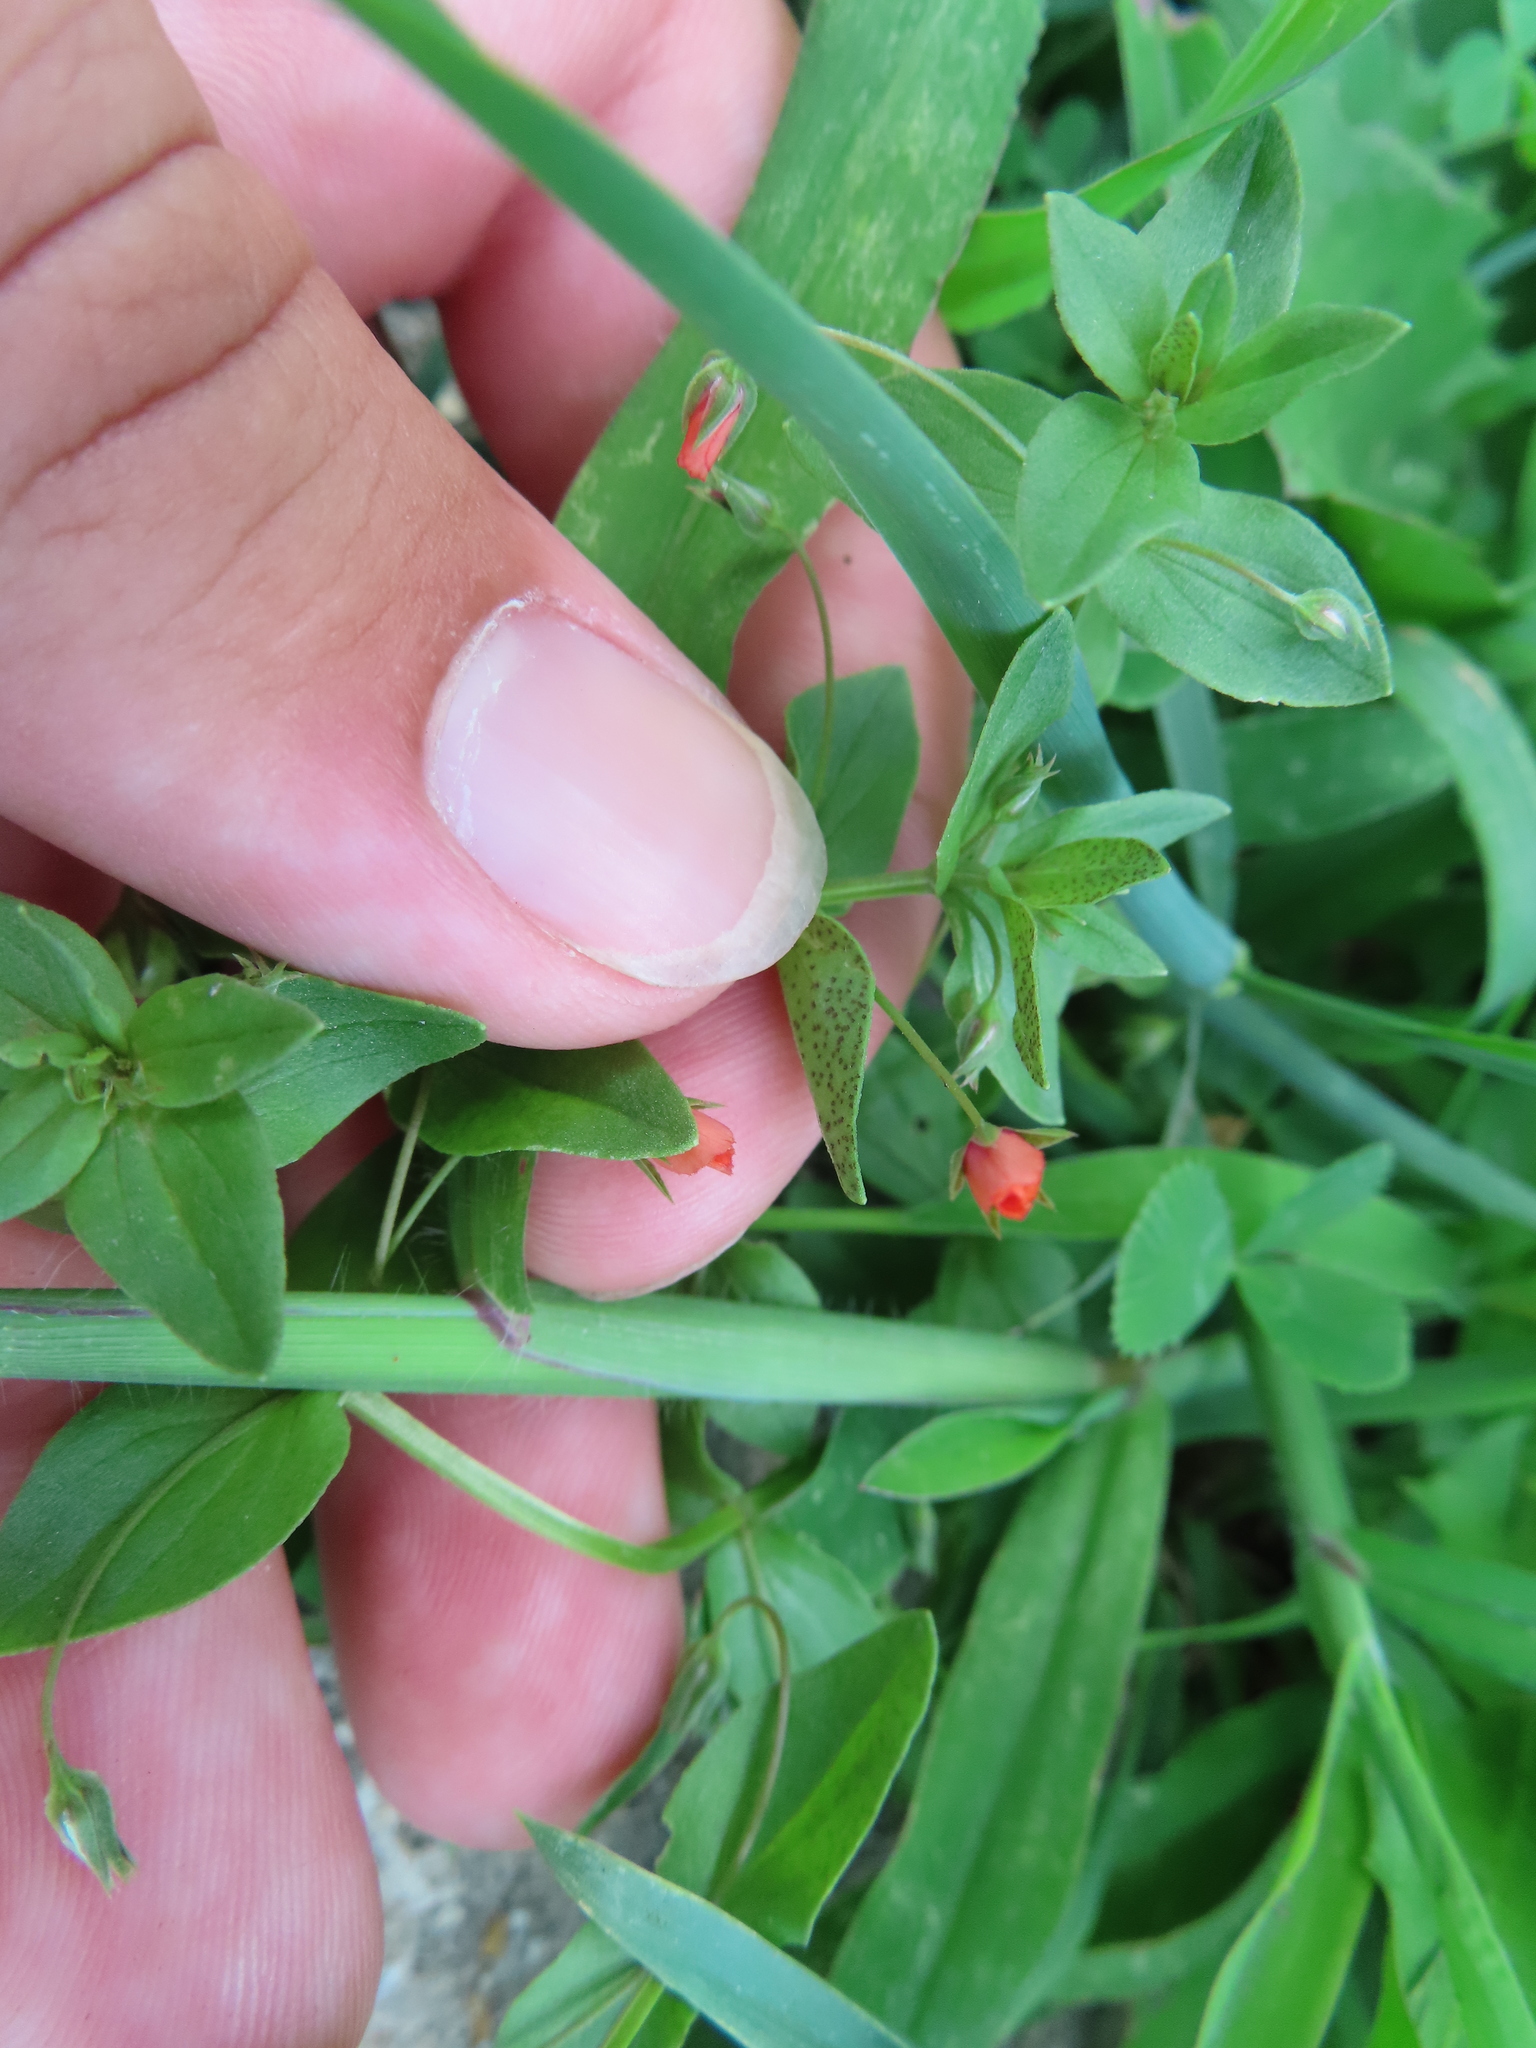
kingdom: Plantae
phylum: Tracheophyta
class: Magnoliopsida
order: Ericales
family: Primulaceae
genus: Lysimachia
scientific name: Lysimachia arvensis
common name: Scarlet pimpernel
